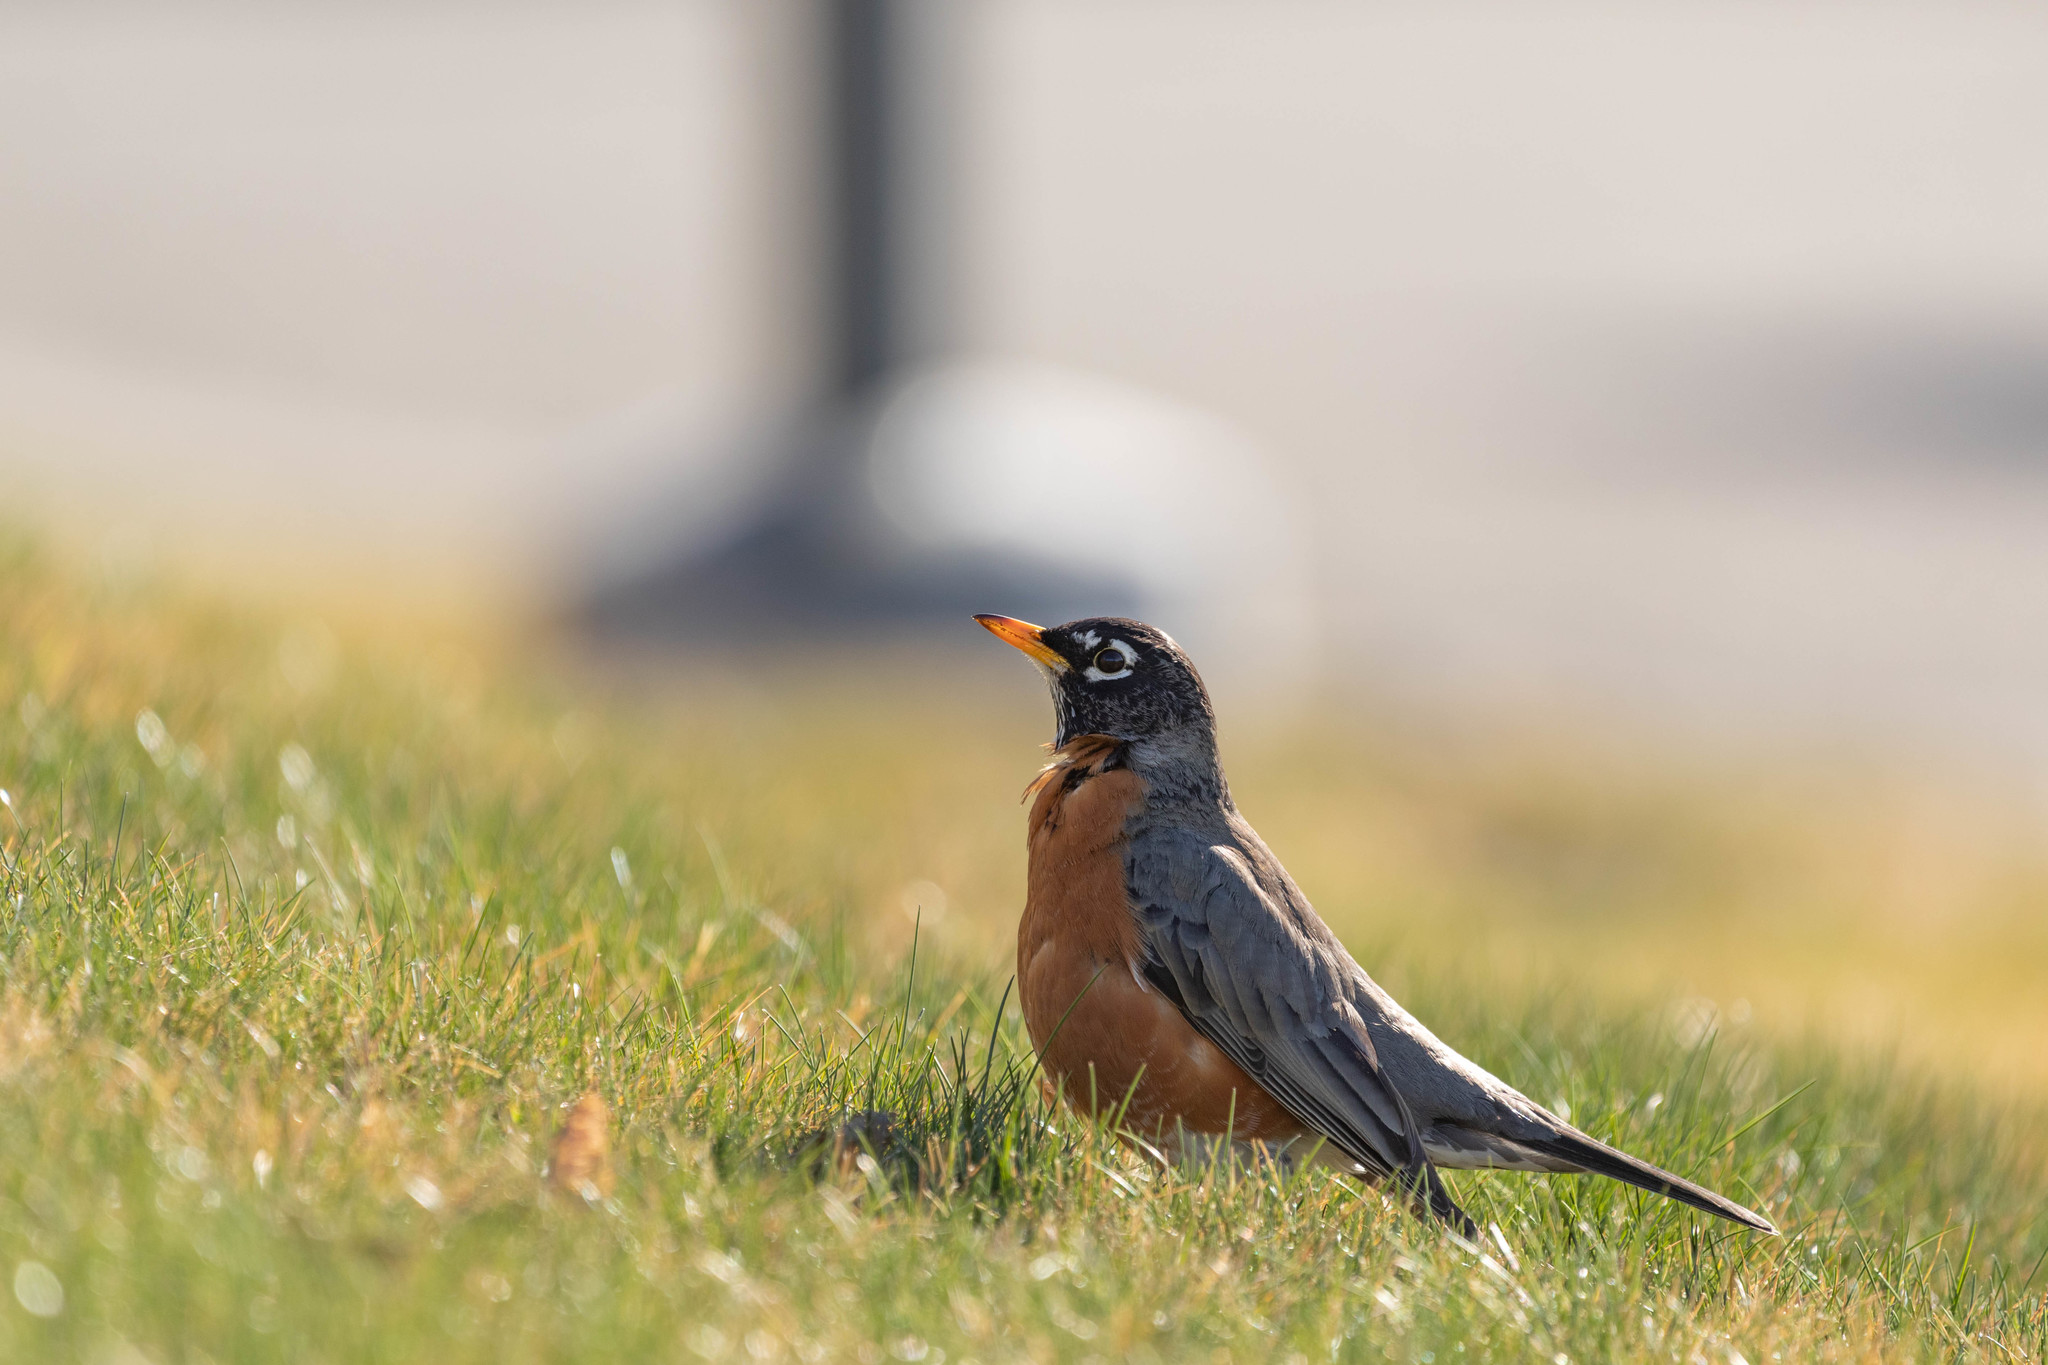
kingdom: Animalia
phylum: Chordata
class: Aves
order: Passeriformes
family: Turdidae
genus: Turdus
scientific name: Turdus migratorius
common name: American robin
